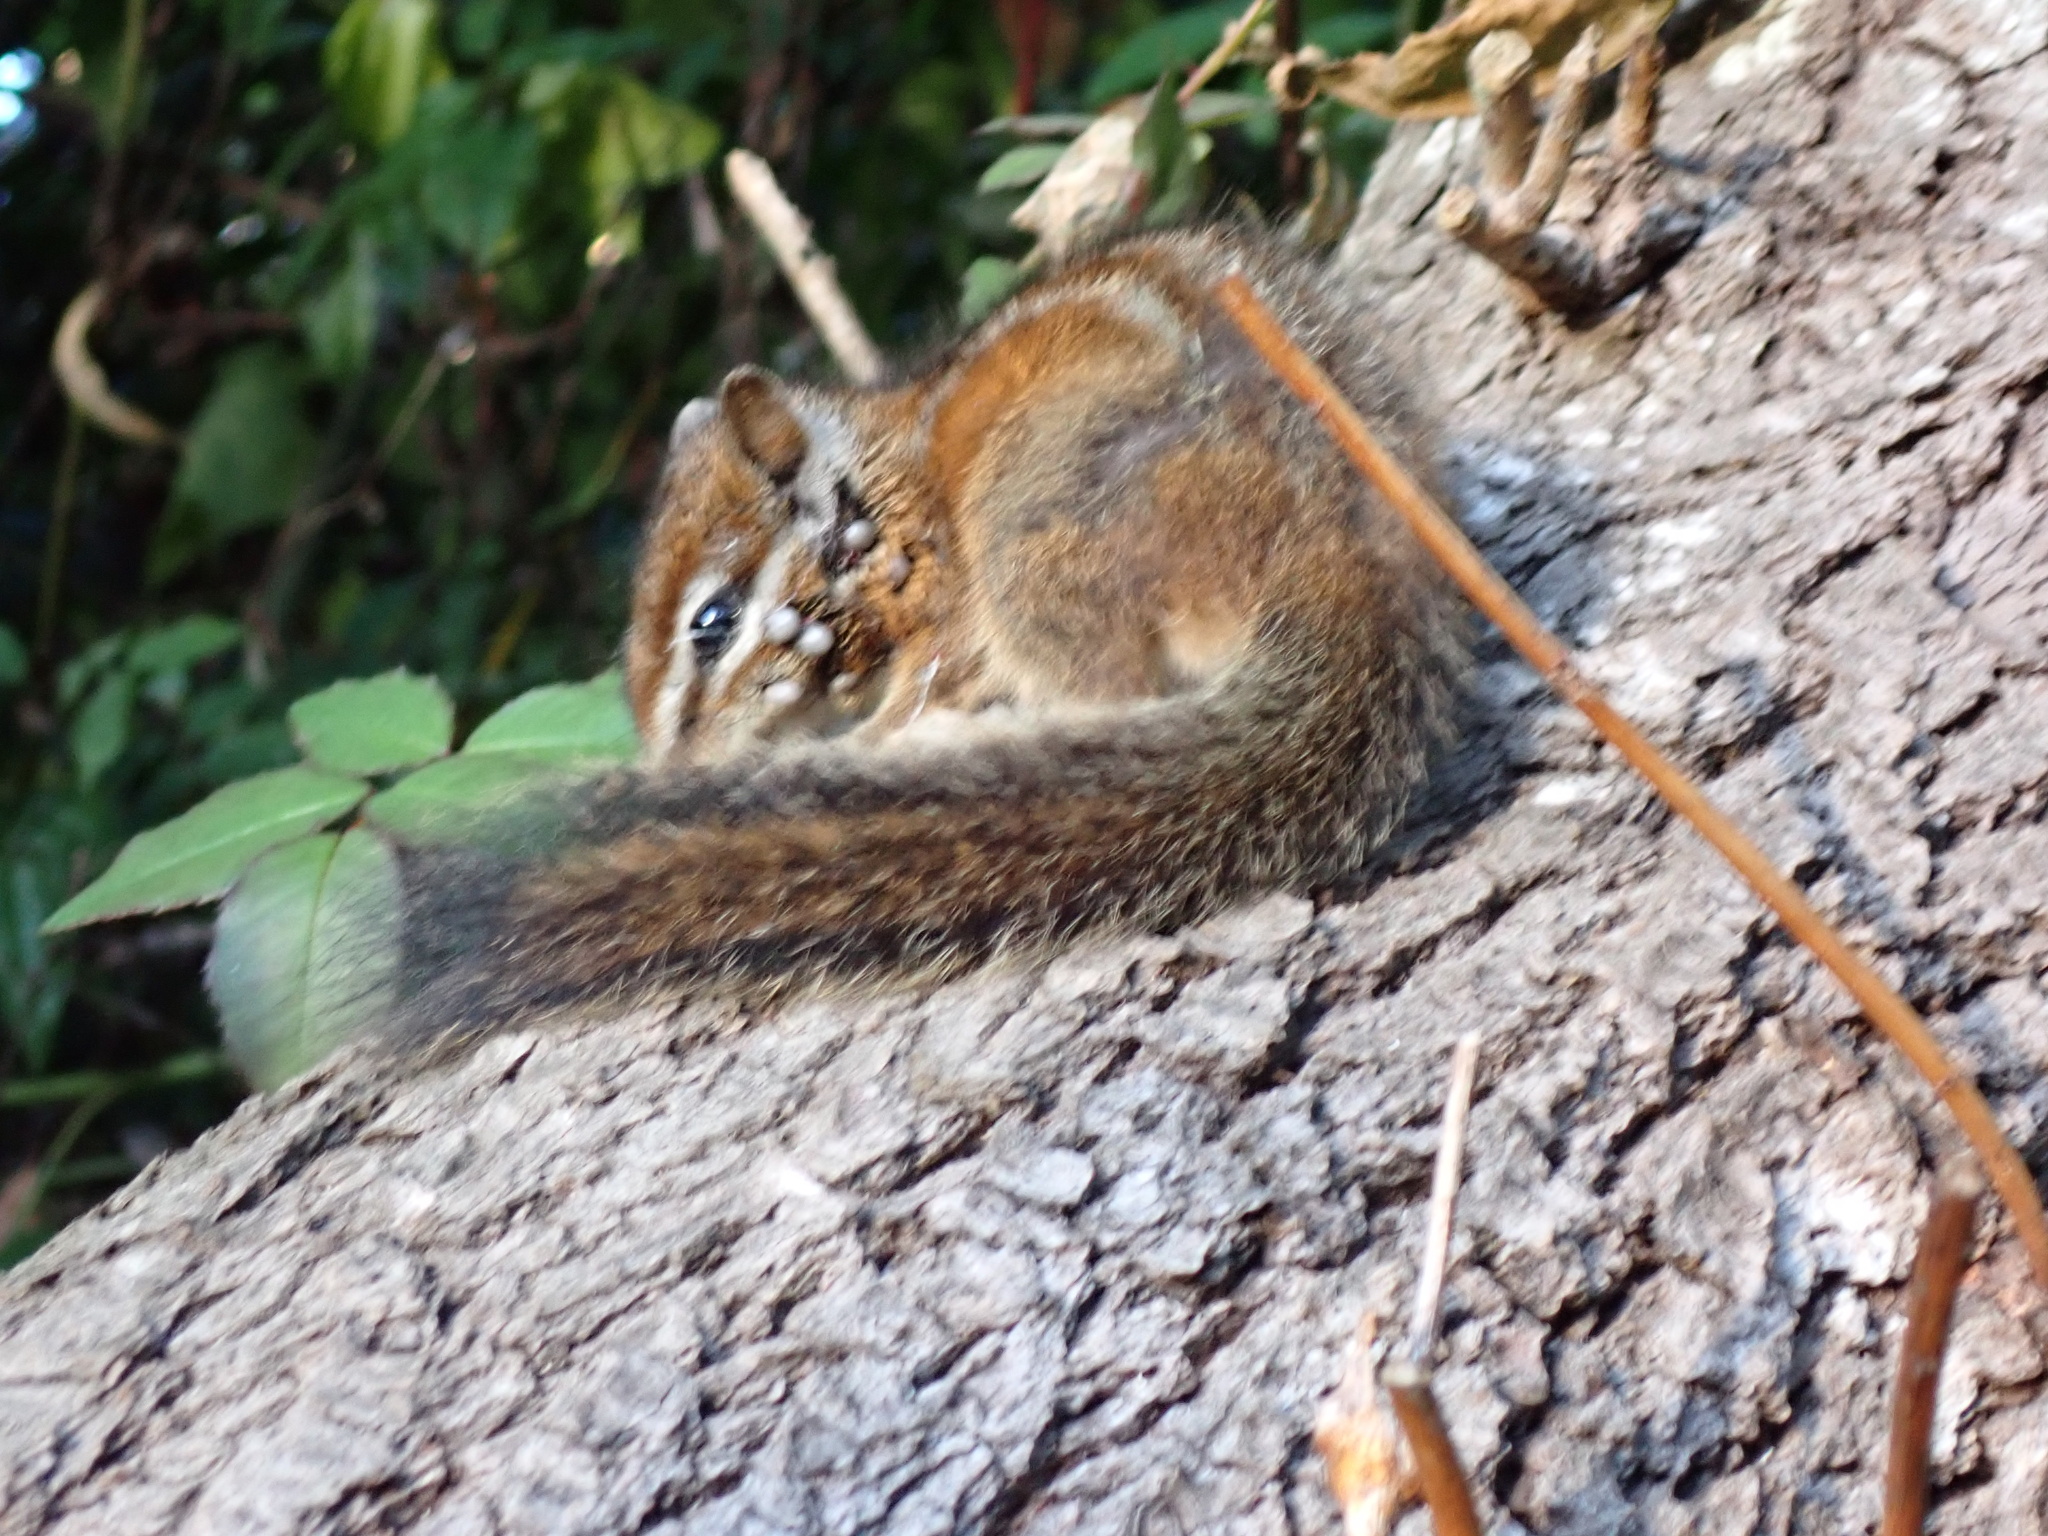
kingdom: Animalia
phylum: Chordata
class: Mammalia
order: Rodentia
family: Sciuridae
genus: Tamias
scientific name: Tamias merriami
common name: Merriam's chipmunk
